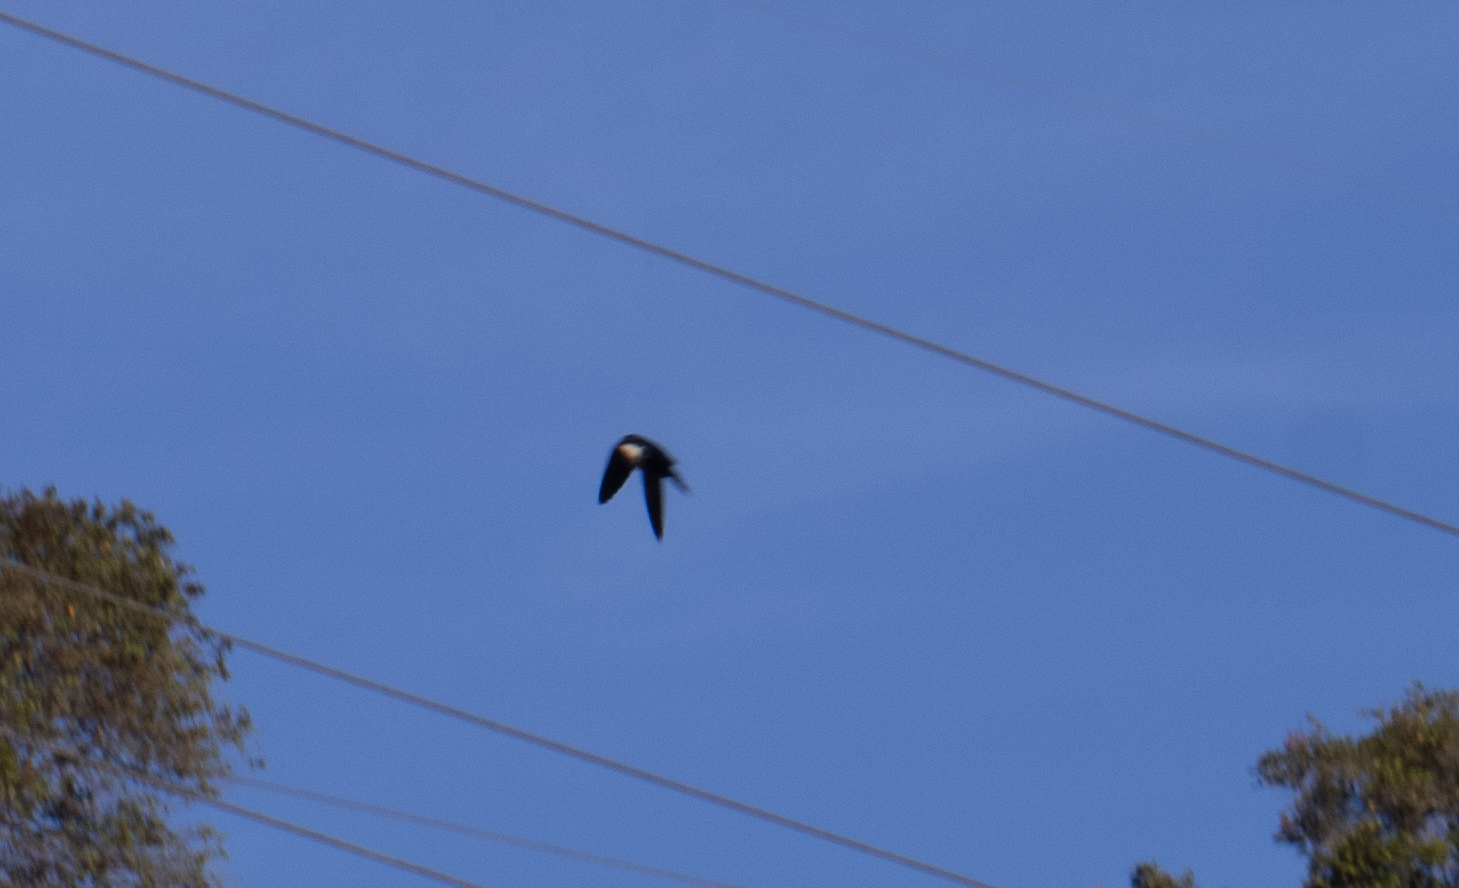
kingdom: Animalia
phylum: Chordata
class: Aves
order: Passeriformes
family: Hirundinidae
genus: Notiochelidon
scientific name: Notiochelidon cyanoleuca
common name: Blue-and-white swallow
